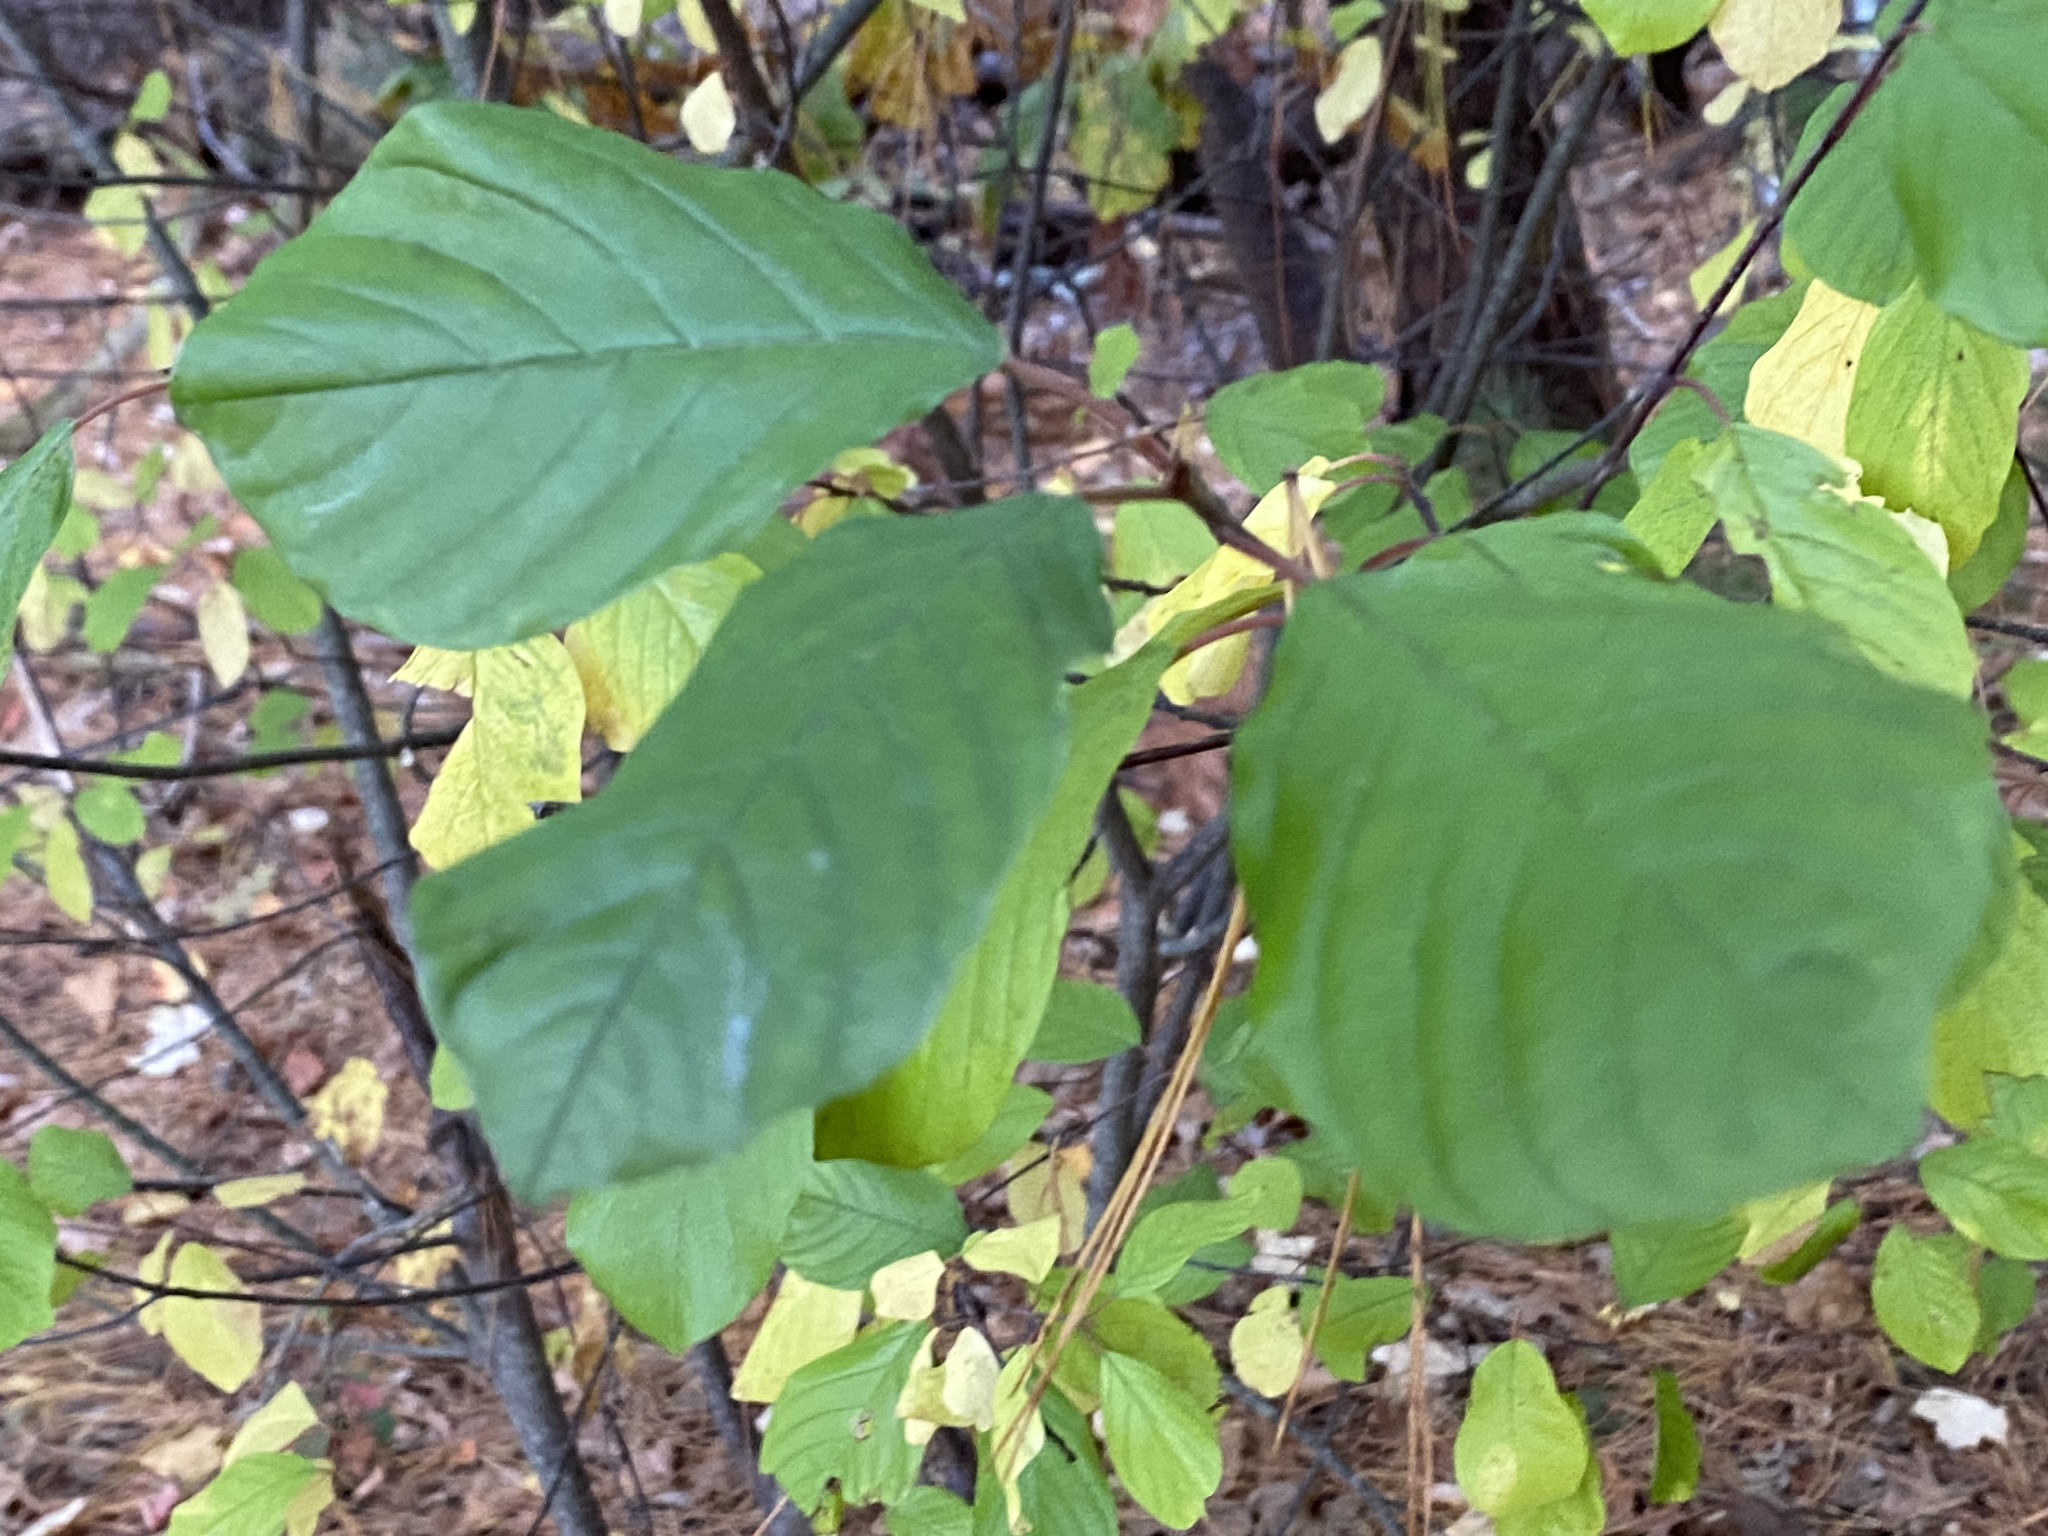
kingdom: Plantae
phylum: Tracheophyta
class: Magnoliopsida
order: Rosales
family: Rhamnaceae
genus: Frangula
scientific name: Frangula alnus
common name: Alder buckthorn
